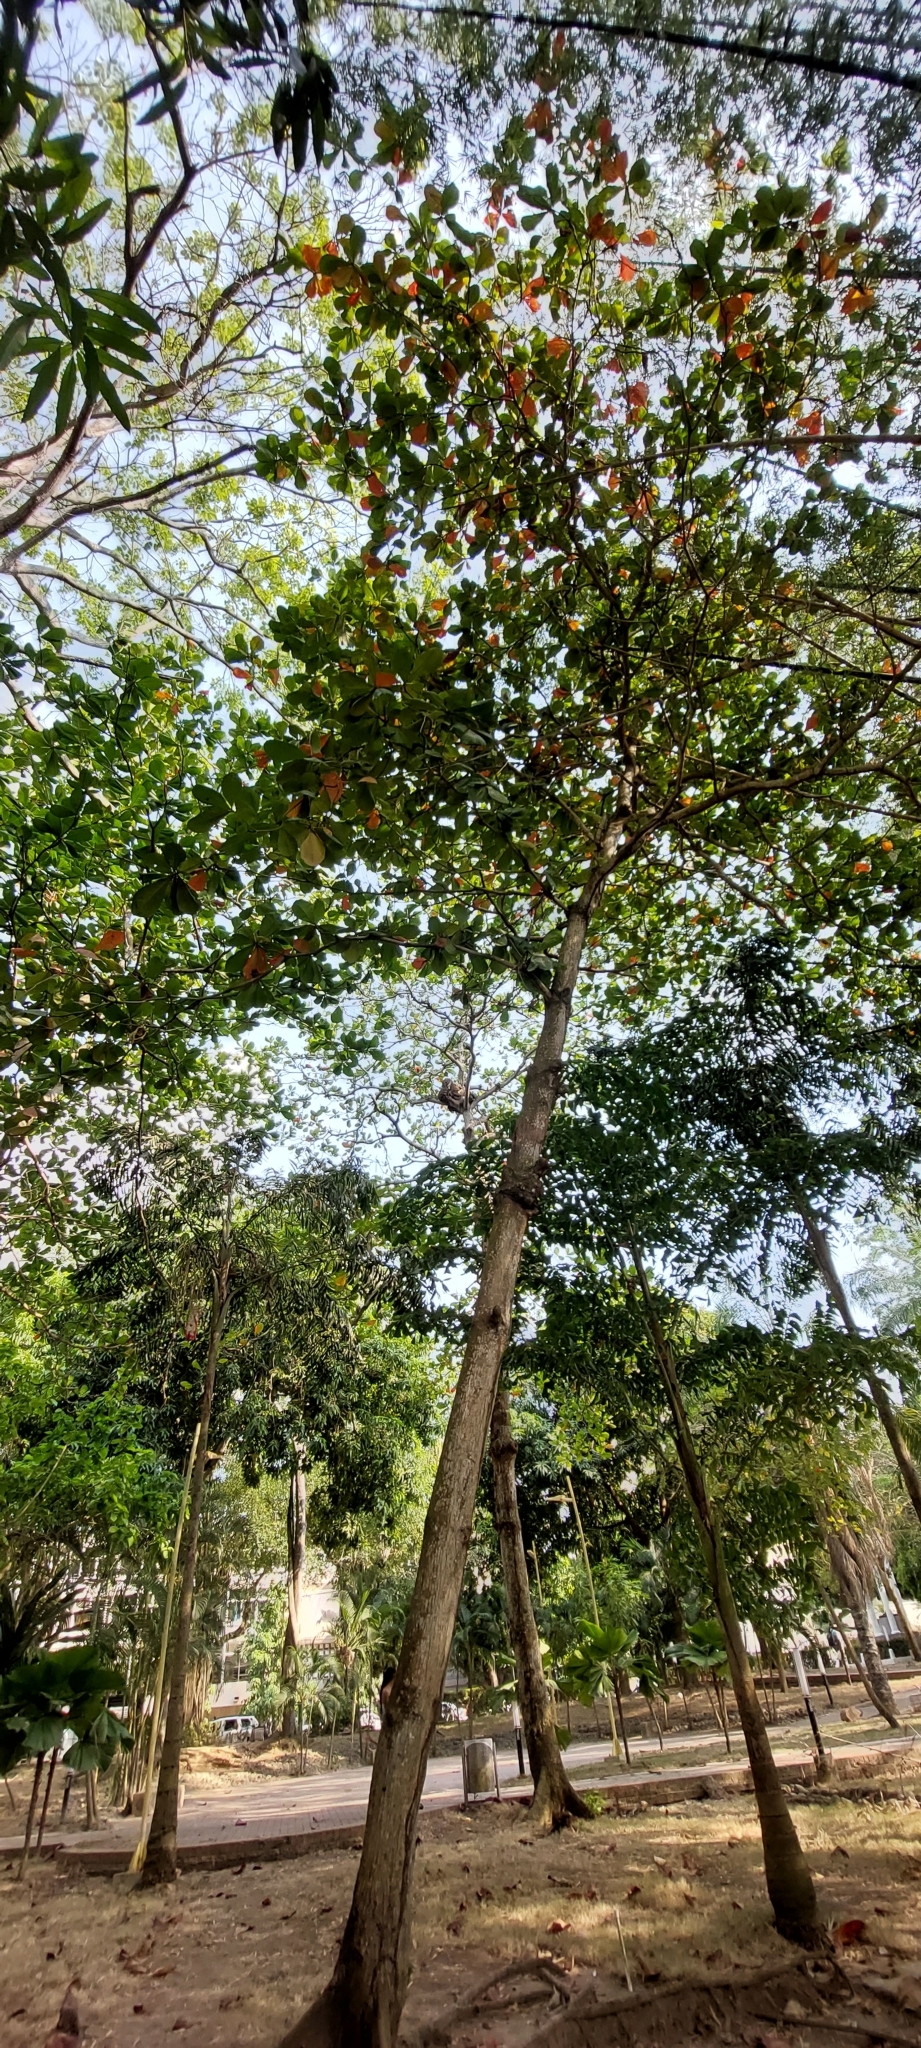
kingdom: Plantae
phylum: Tracheophyta
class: Magnoliopsida
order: Myrtales
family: Combretaceae
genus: Terminalia
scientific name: Terminalia catappa
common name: Tropical almond
